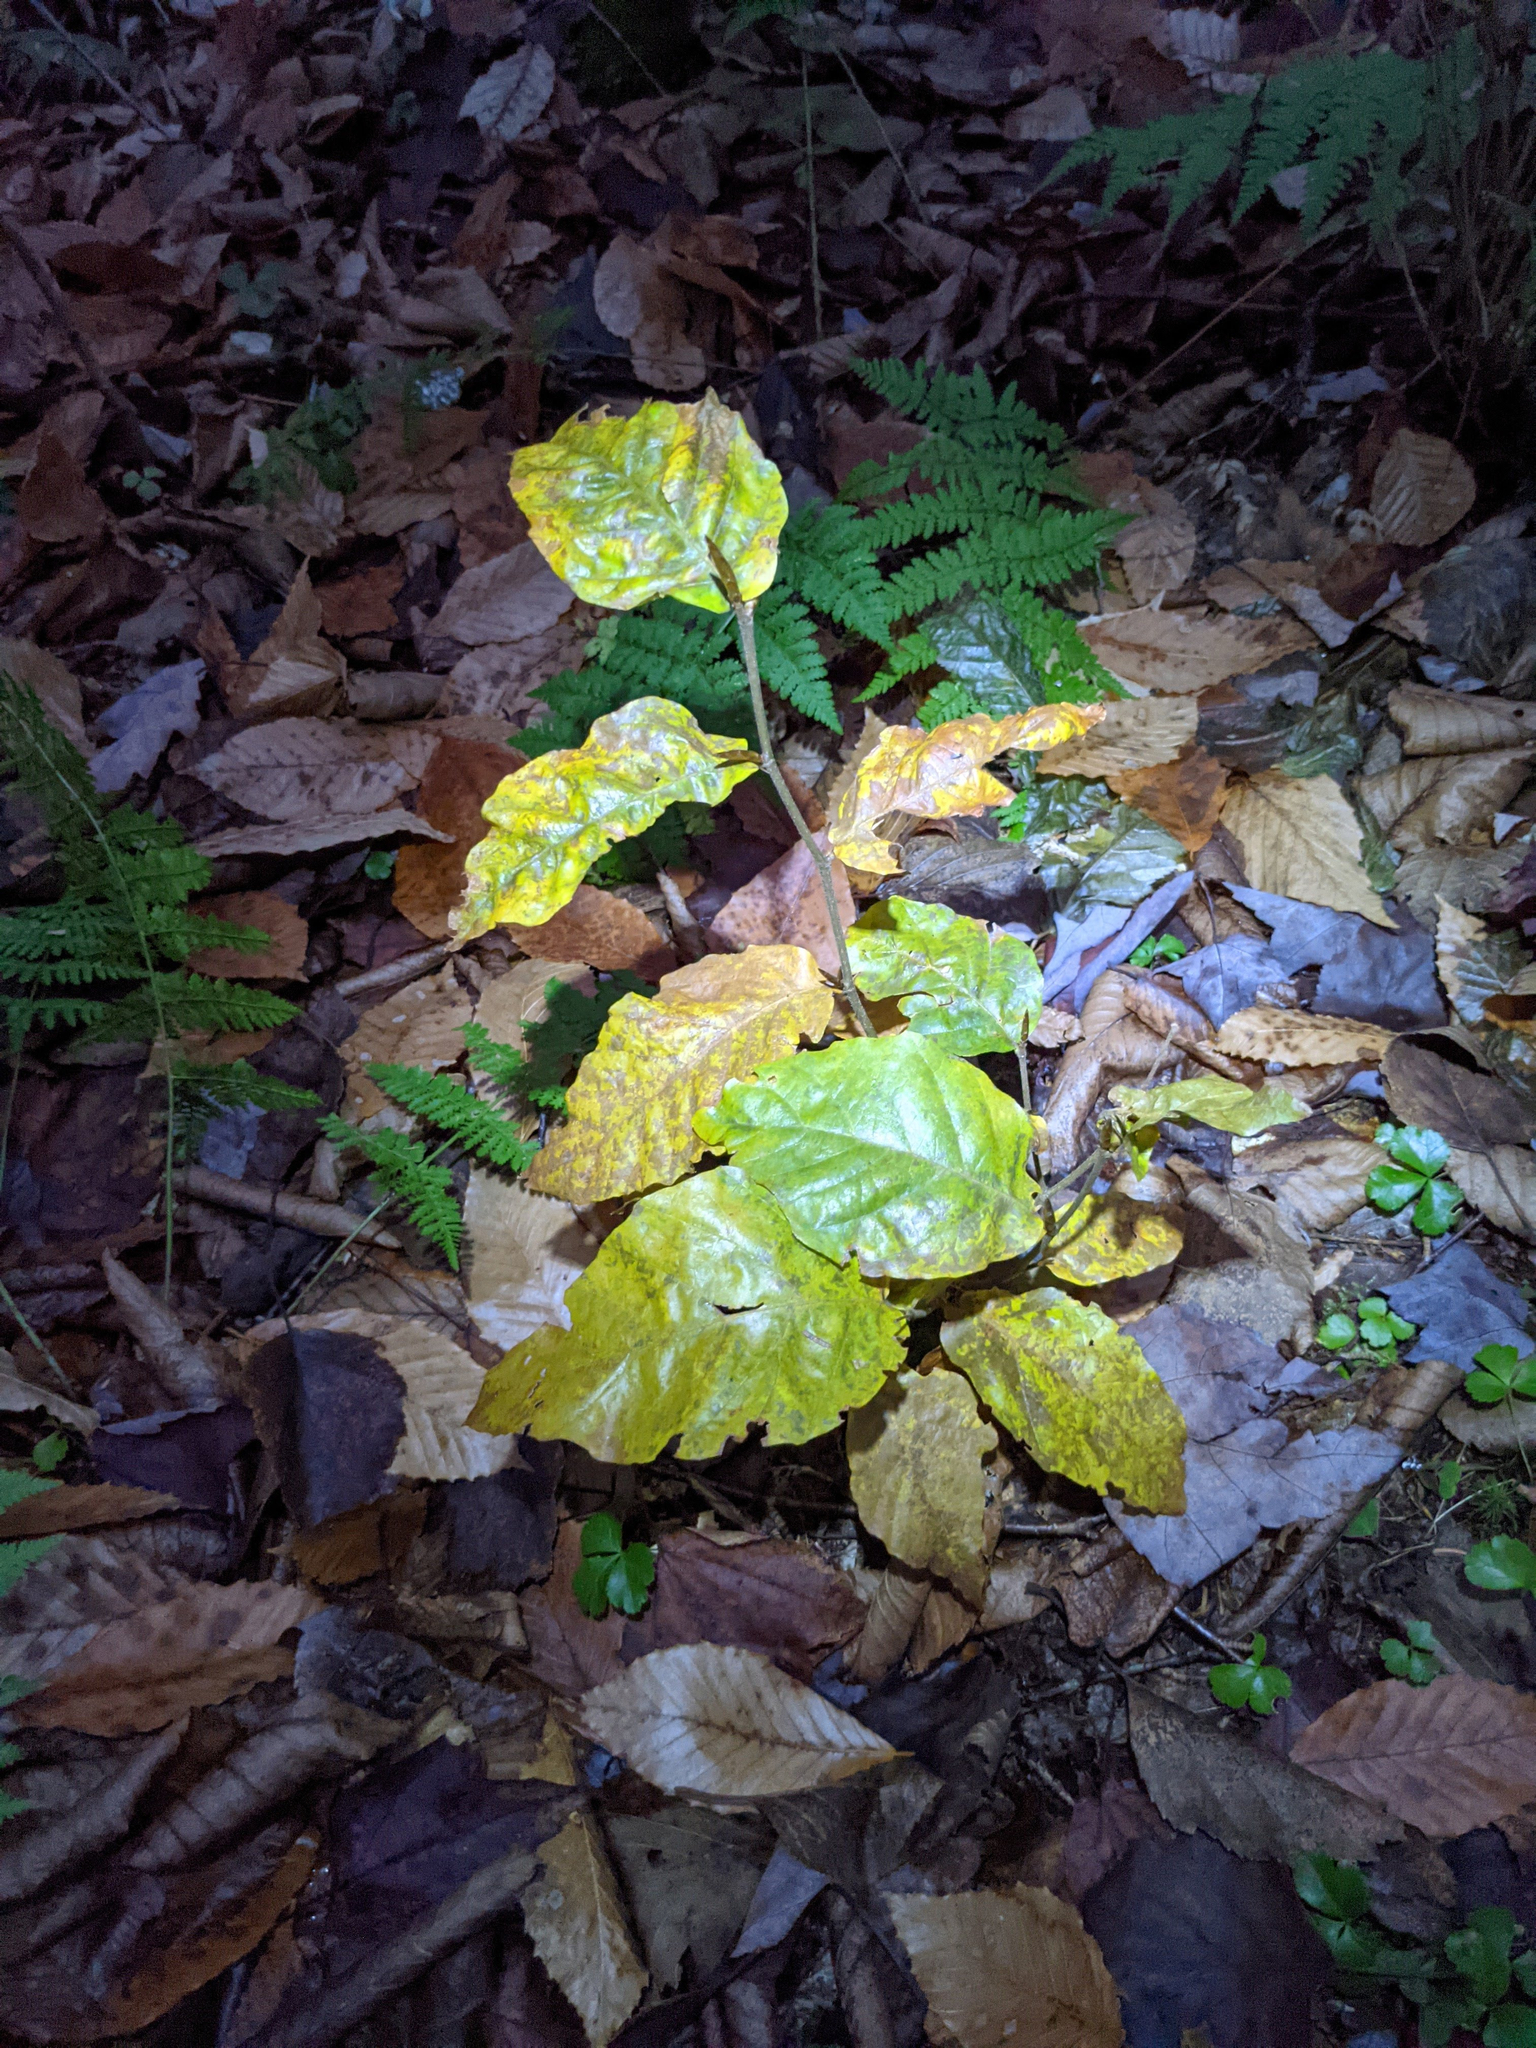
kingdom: Plantae
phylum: Tracheophyta
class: Magnoliopsida
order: Fagales
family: Fagaceae
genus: Fagus
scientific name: Fagus grandifolia
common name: American beech
